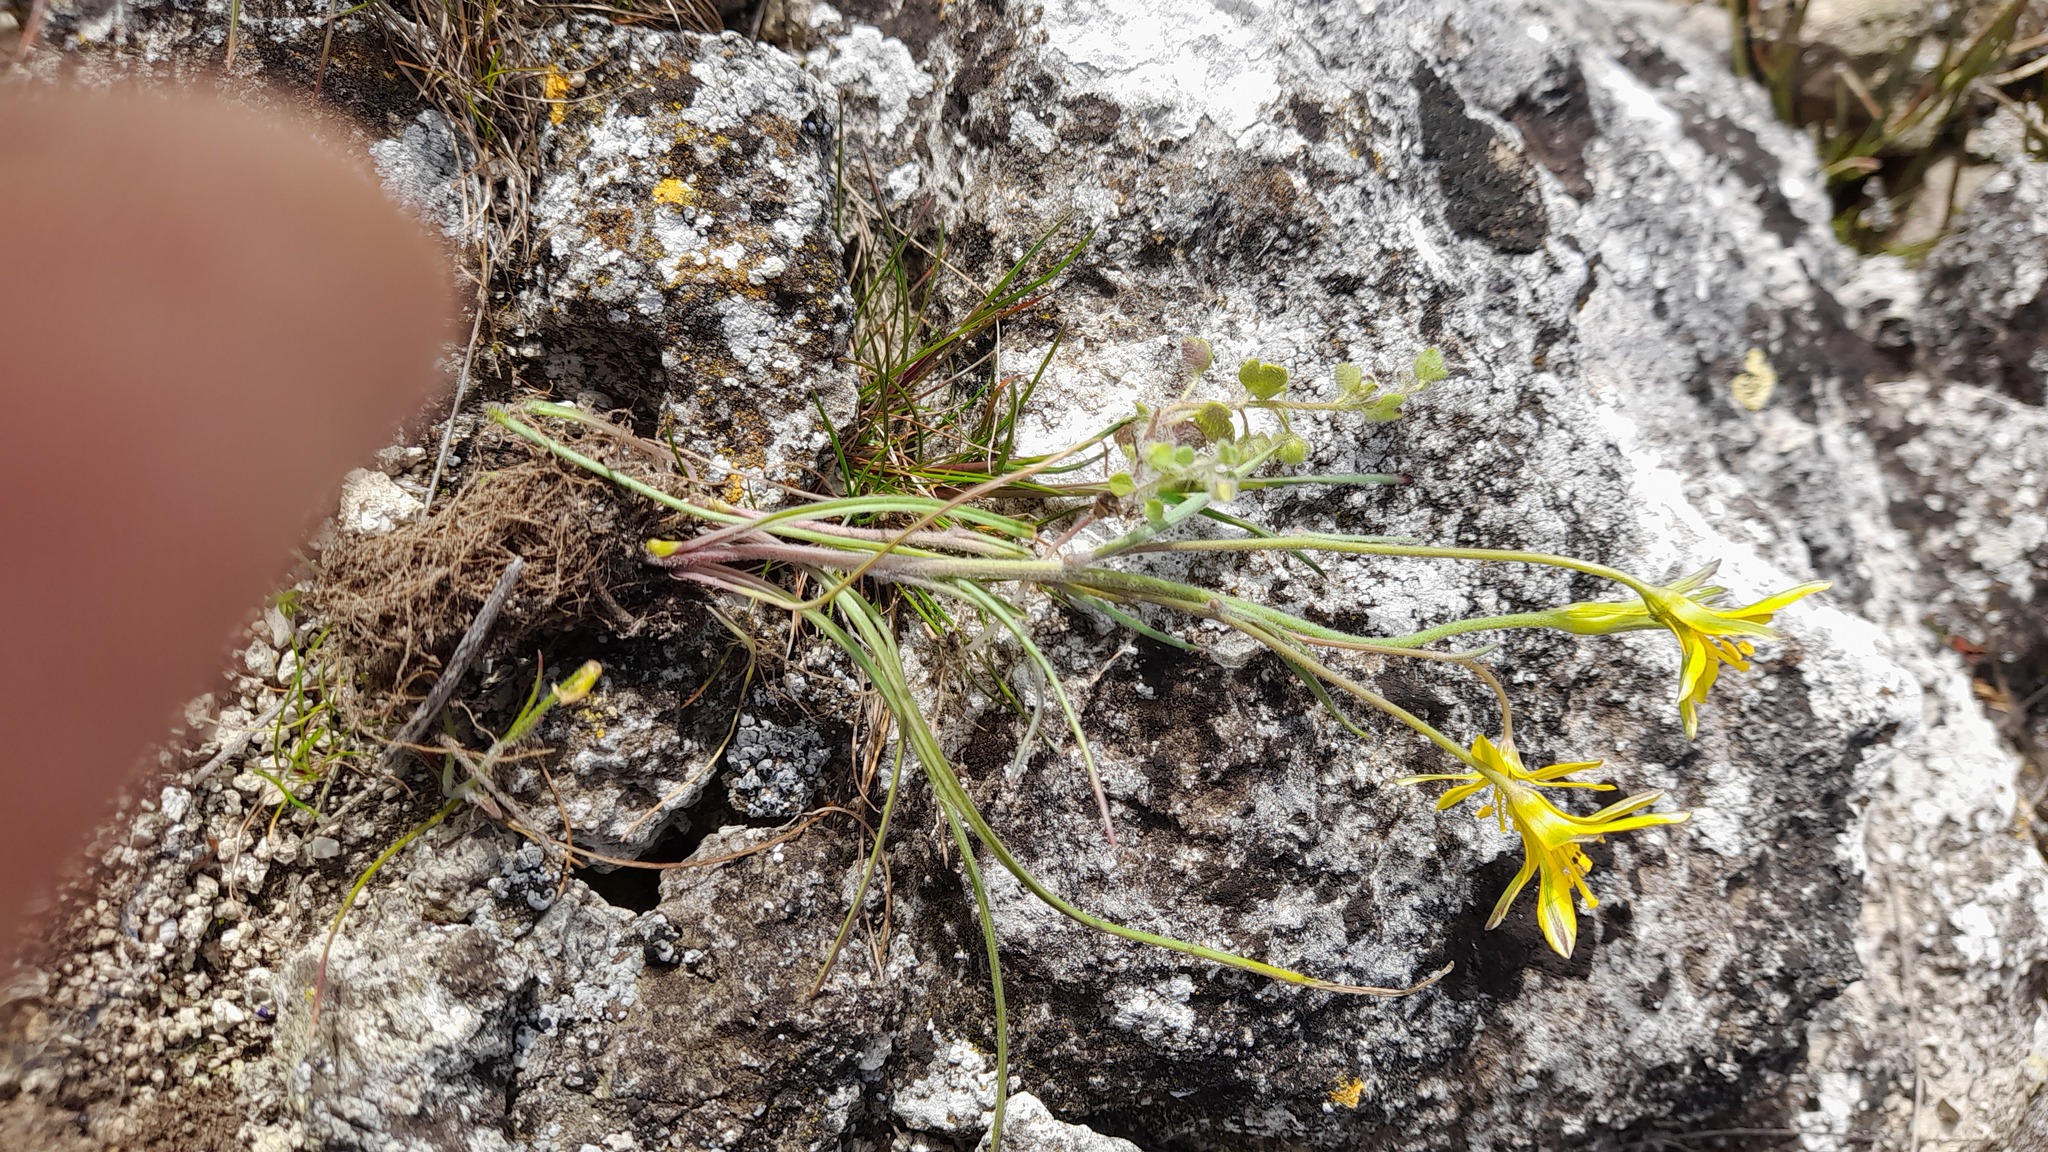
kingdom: Plantae
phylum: Tracheophyta
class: Liliopsida
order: Liliales
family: Liliaceae
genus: Gagea
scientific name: Gagea bulbifera
